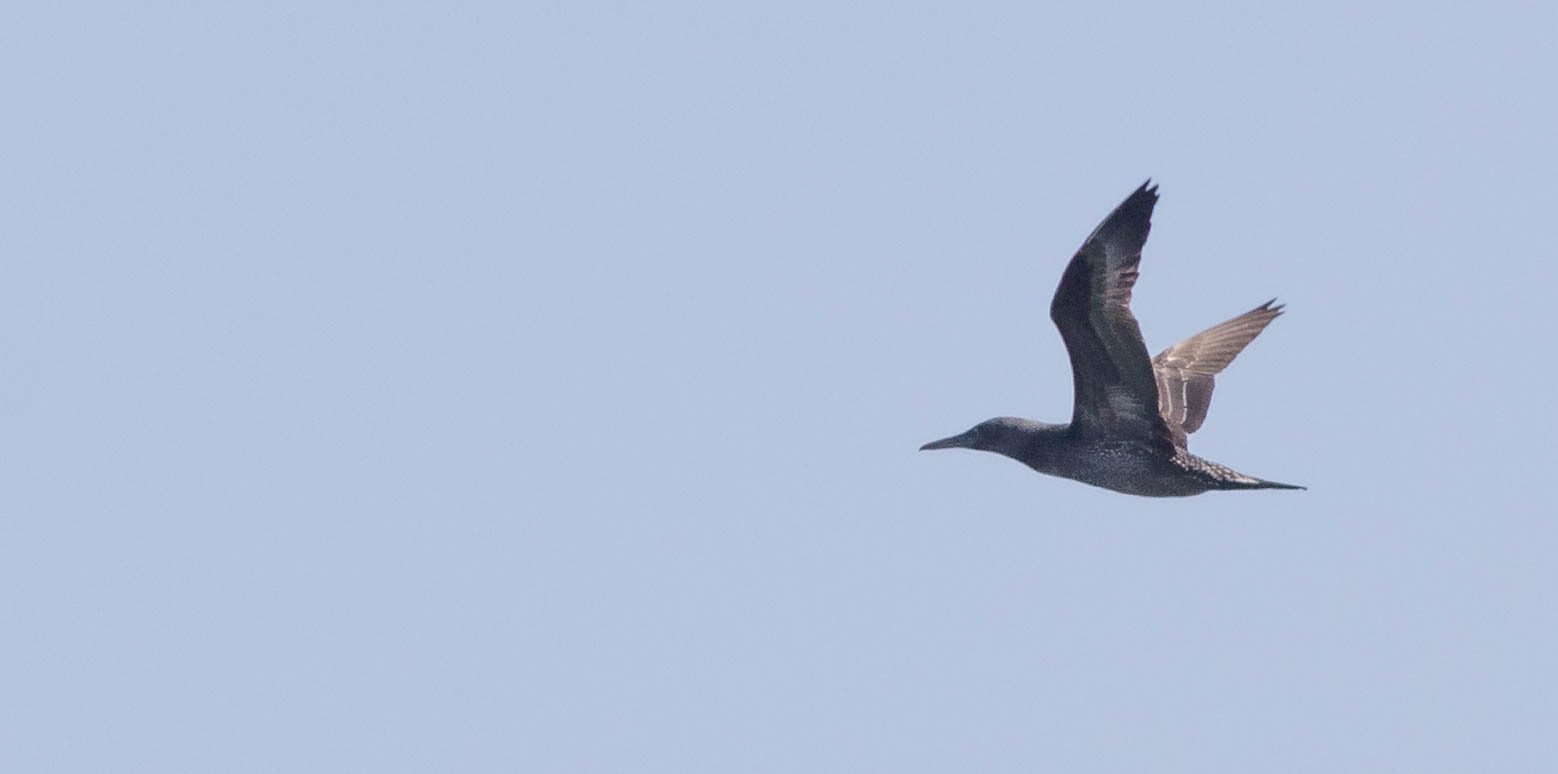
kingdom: Animalia
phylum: Chordata
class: Aves
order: Suliformes
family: Sulidae
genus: Morus
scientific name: Morus bassanus
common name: Northern gannet
